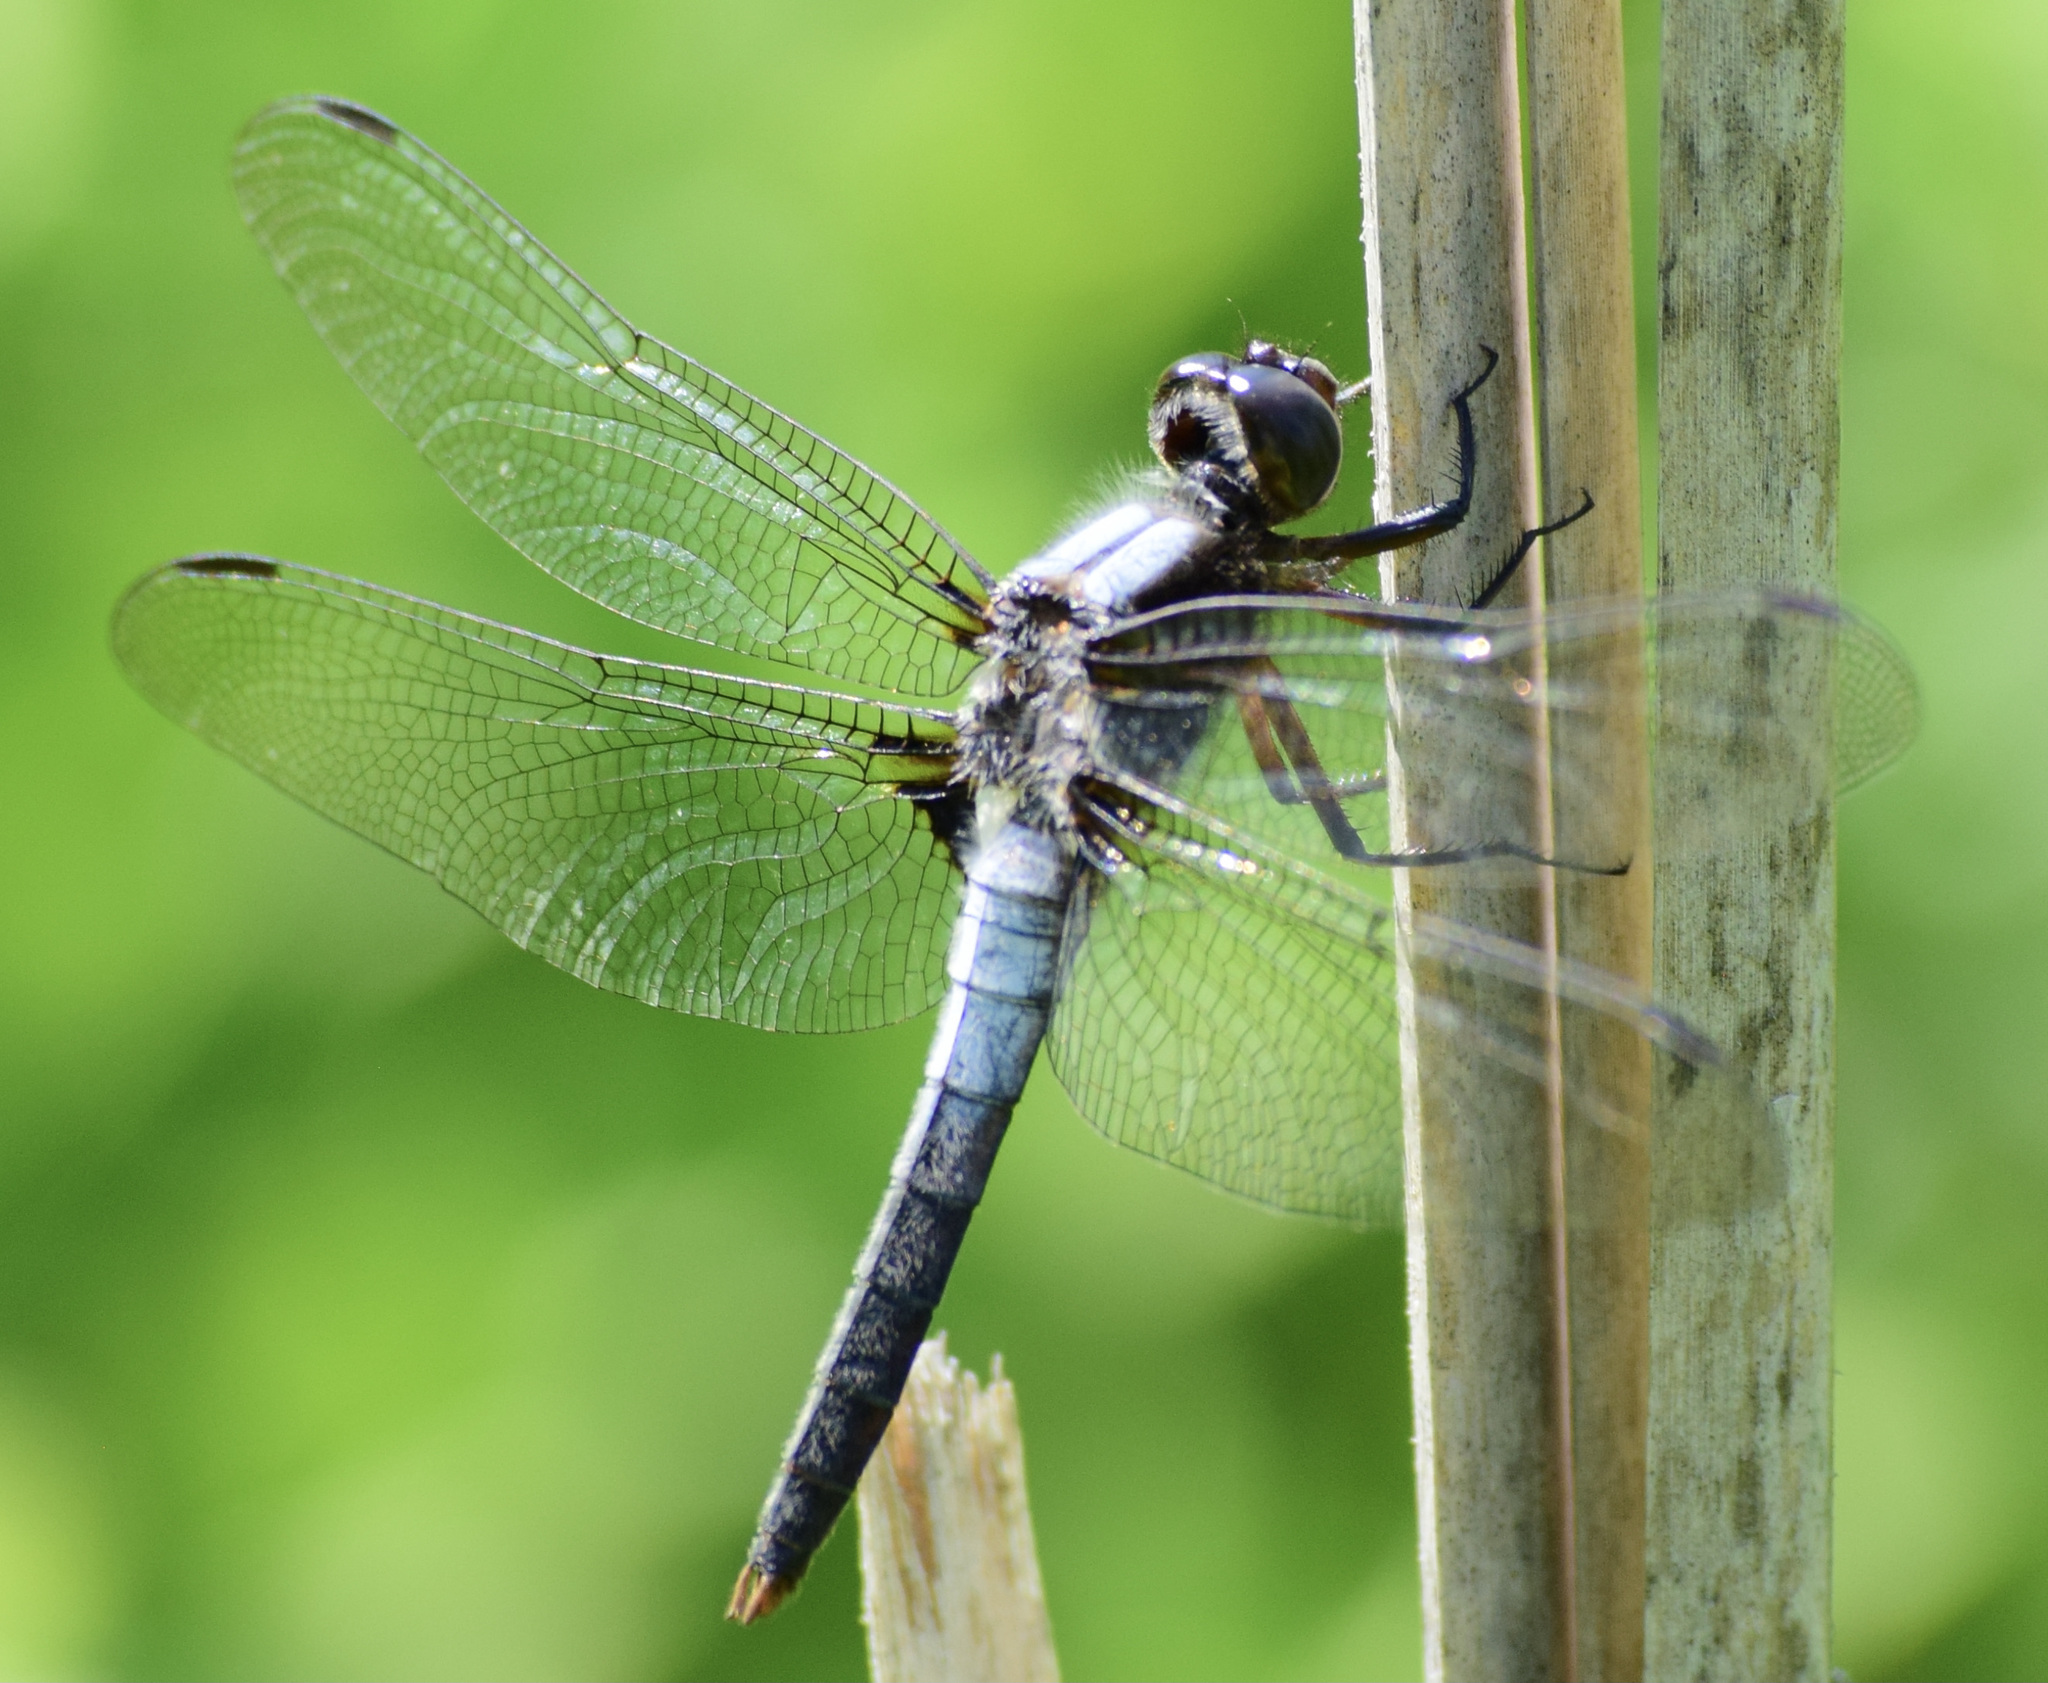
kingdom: Animalia
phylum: Arthropoda
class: Insecta
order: Odonata
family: Libellulidae
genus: Ladona
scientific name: Ladona julia
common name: Chalk-fronted corporal
